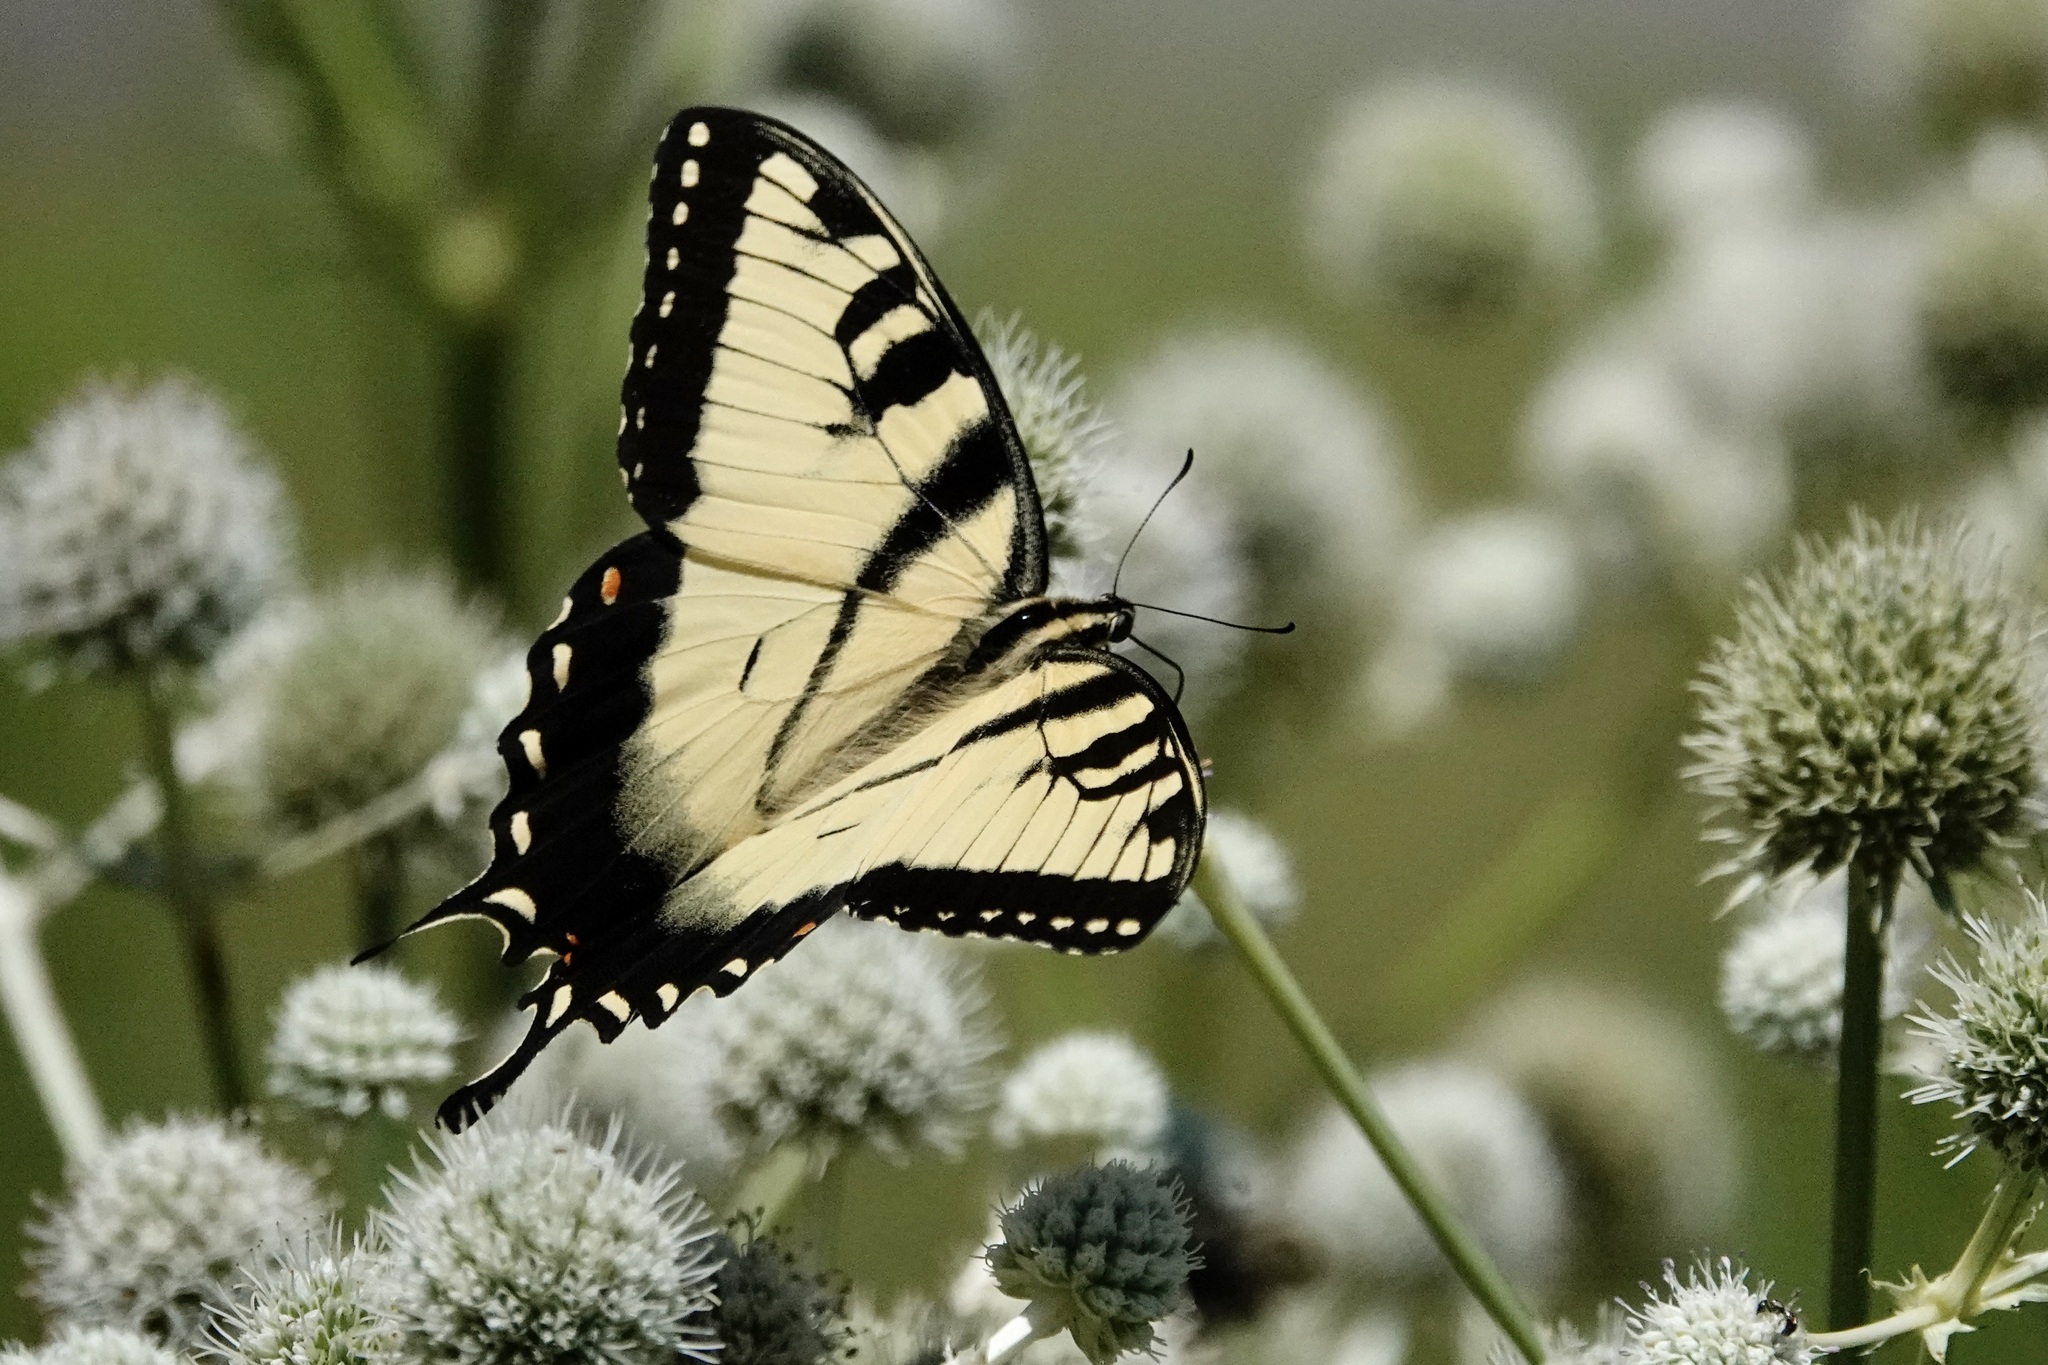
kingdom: Animalia
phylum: Arthropoda
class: Insecta
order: Lepidoptera
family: Papilionidae
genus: Papilio
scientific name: Papilio glaucus
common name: Tiger swallowtail
